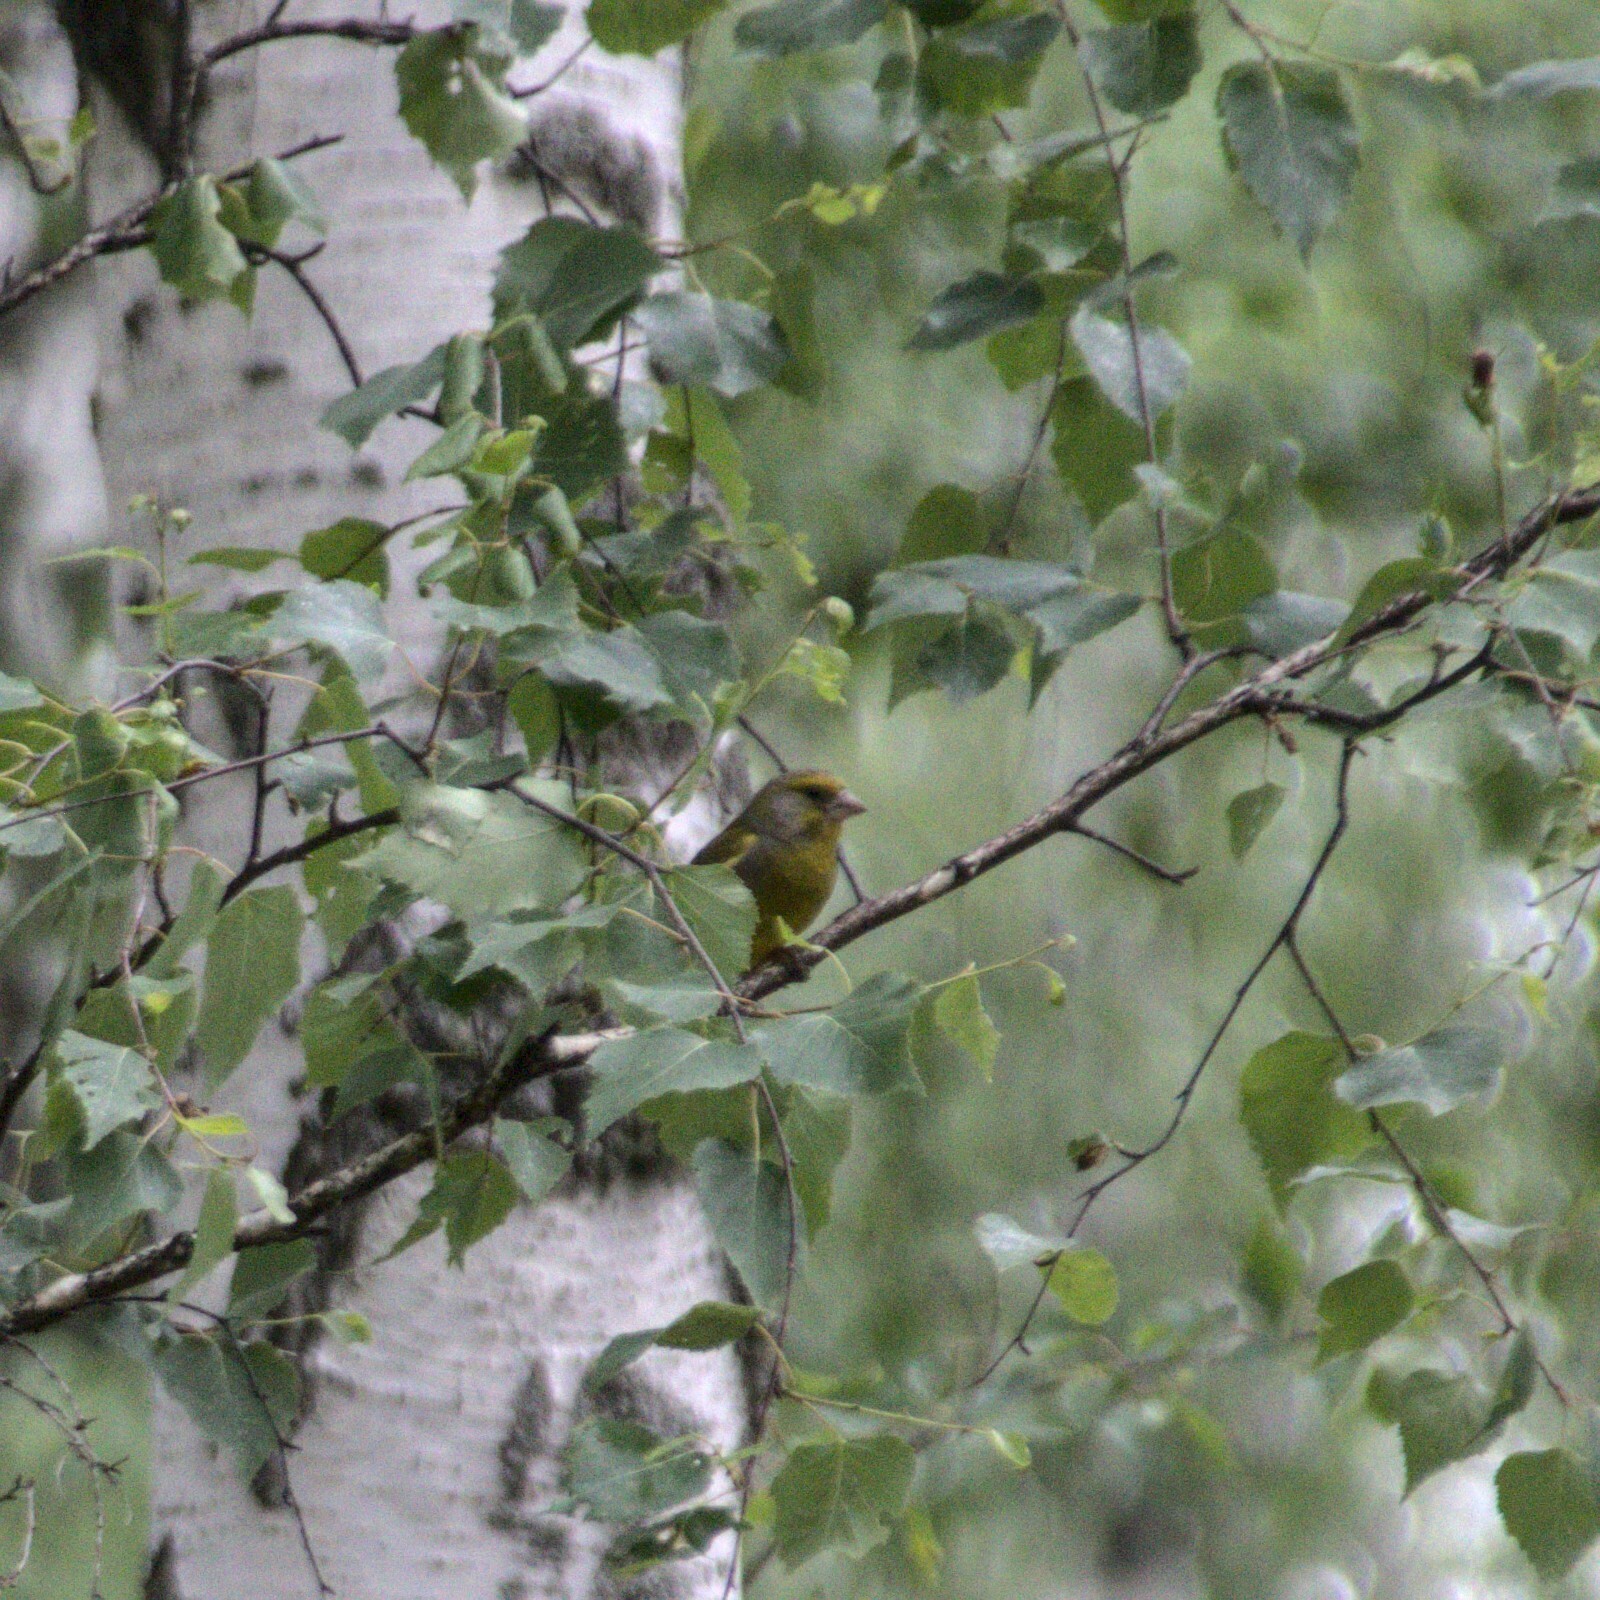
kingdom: Plantae
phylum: Tracheophyta
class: Liliopsida
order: Poales
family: Poaceae
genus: Chloris
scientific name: Chloris chloris
